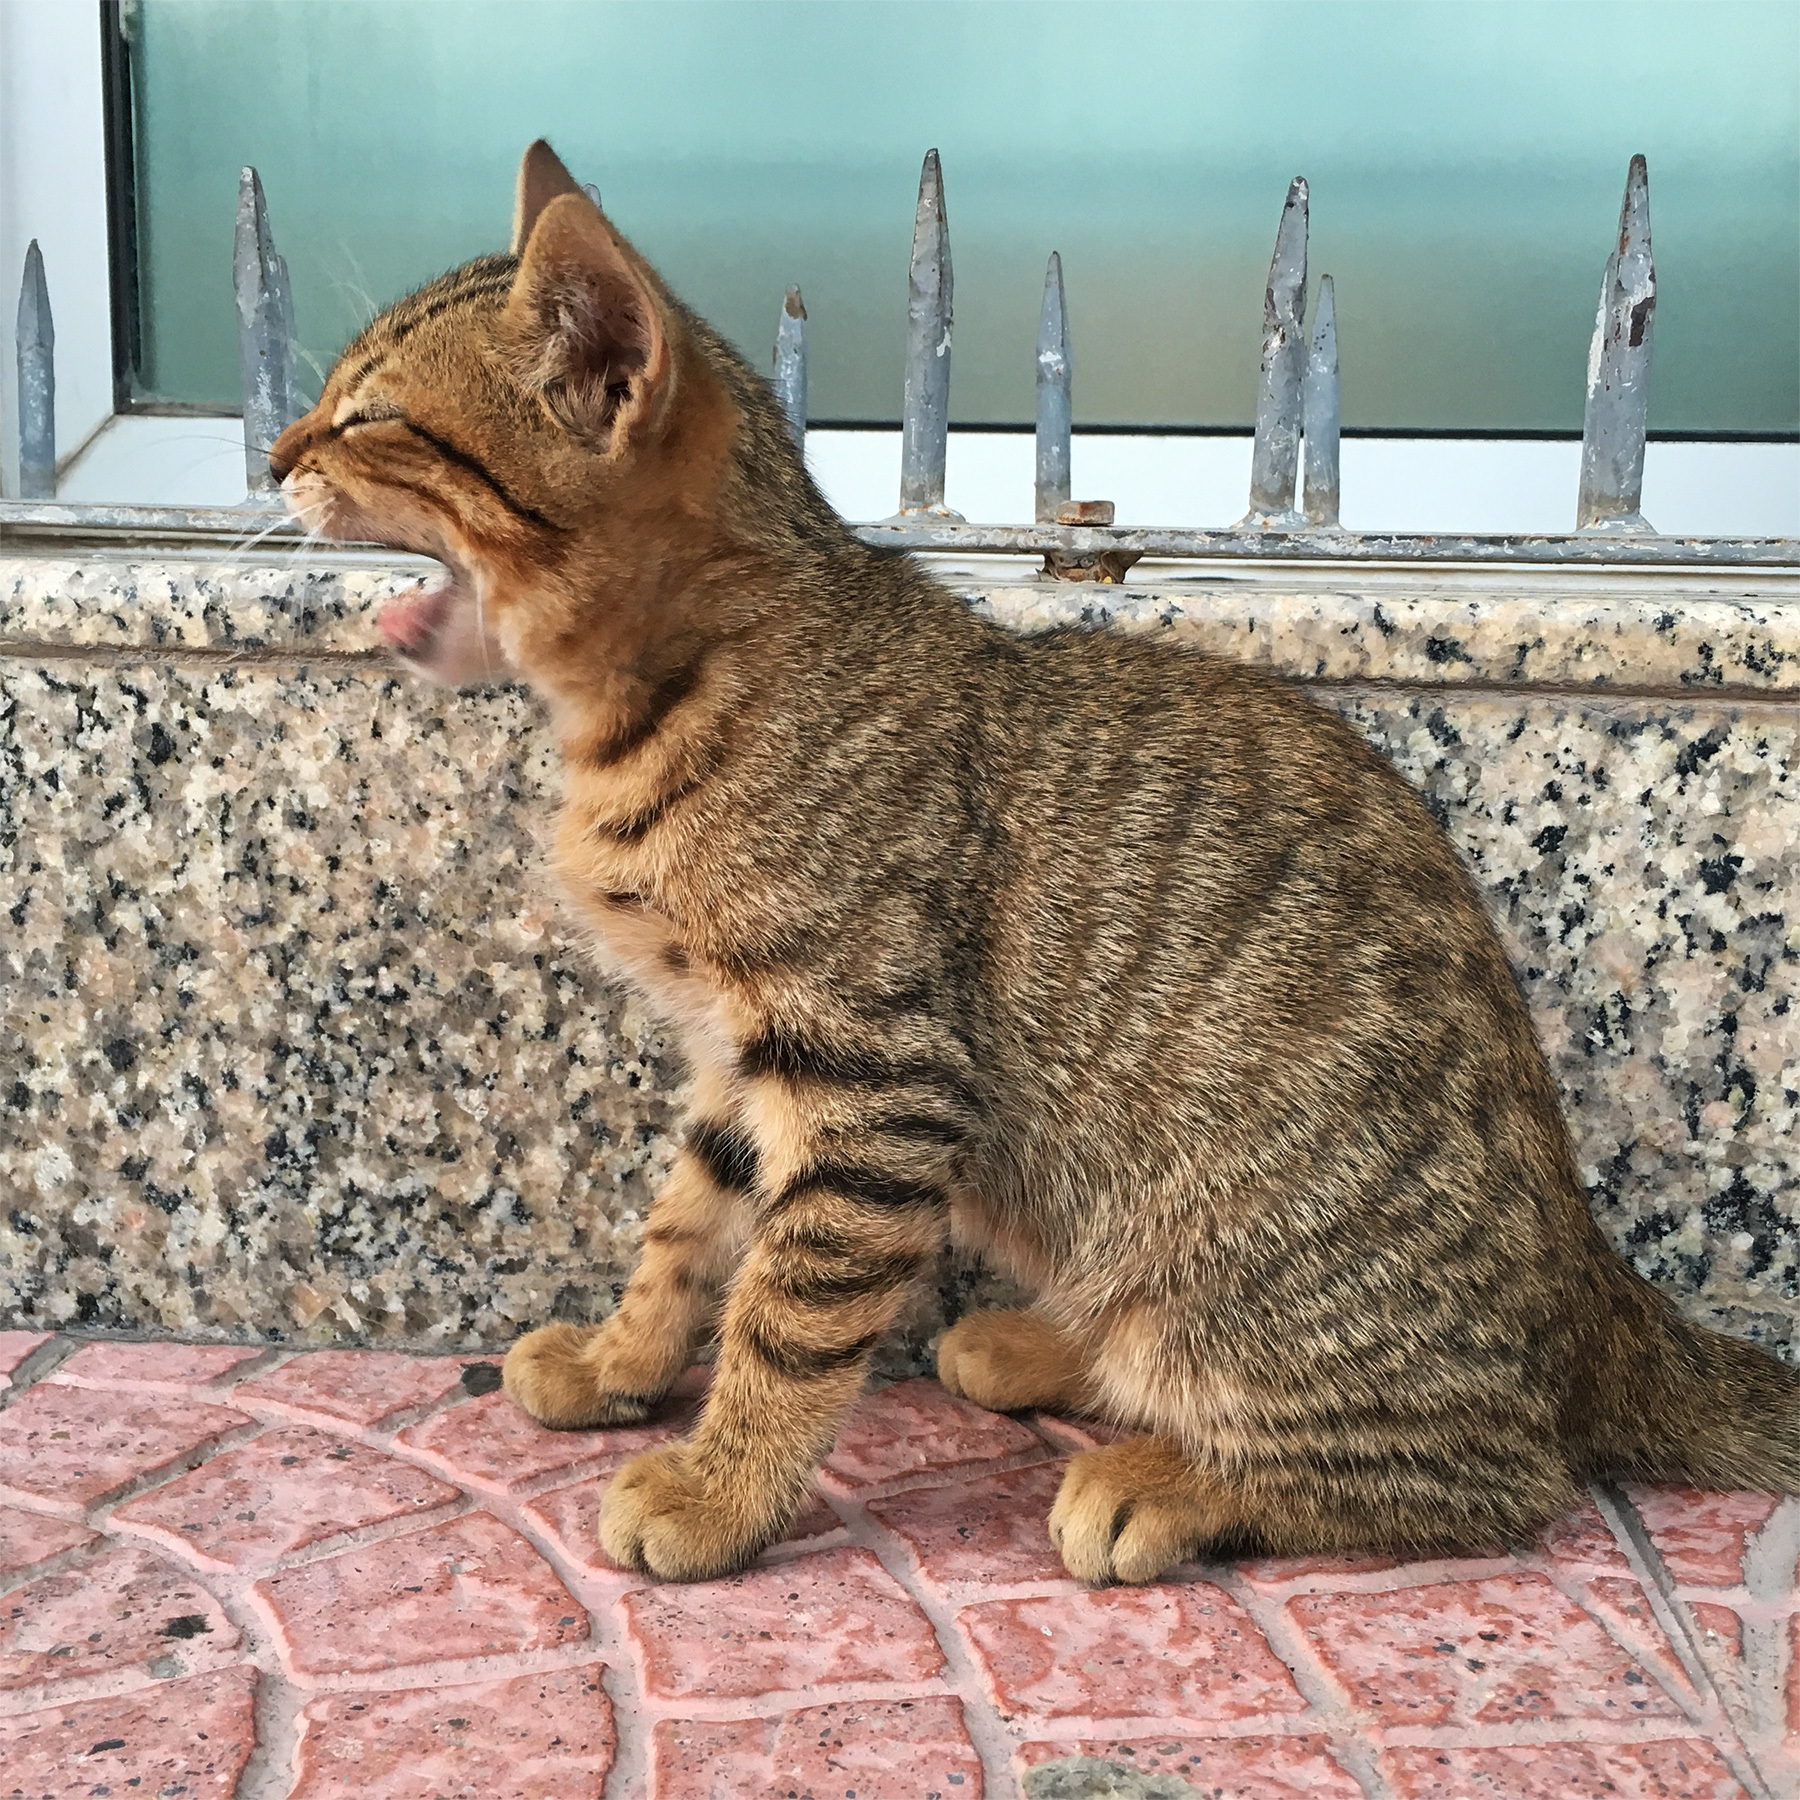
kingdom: Animalia
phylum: Chordata
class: Mammalia
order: Carnivora
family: Felidae
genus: Felis
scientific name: Felis catus
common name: Domestic cat
